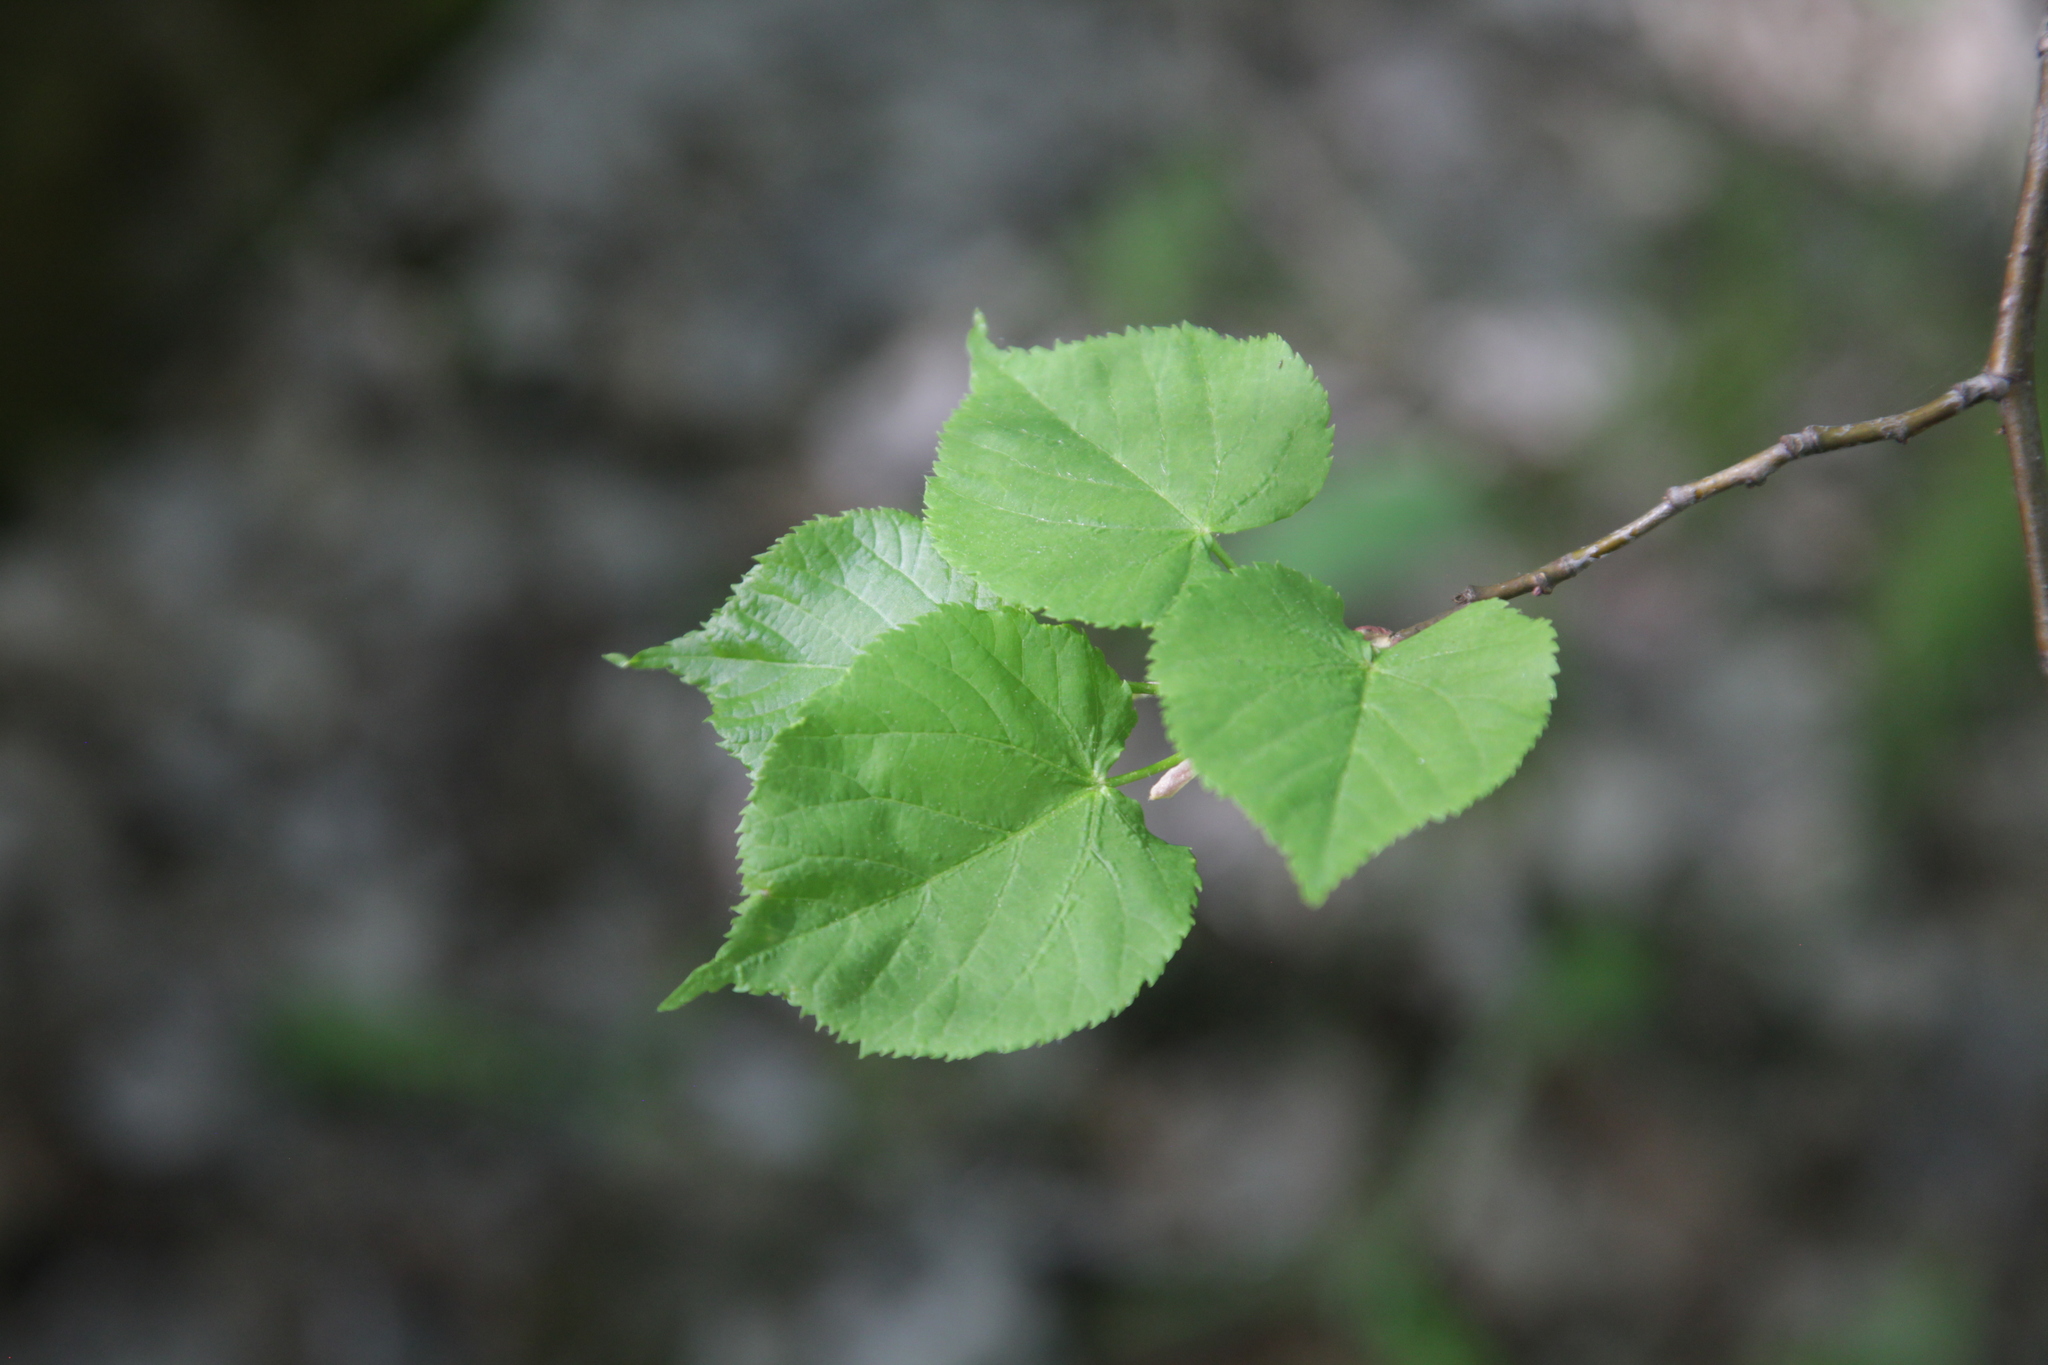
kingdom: Plantae
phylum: Tracheophyta
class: Magnoliopsida
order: Malvales
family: Malvaceae
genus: Tilia
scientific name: Tilia cordata
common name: Small-leaved lime
